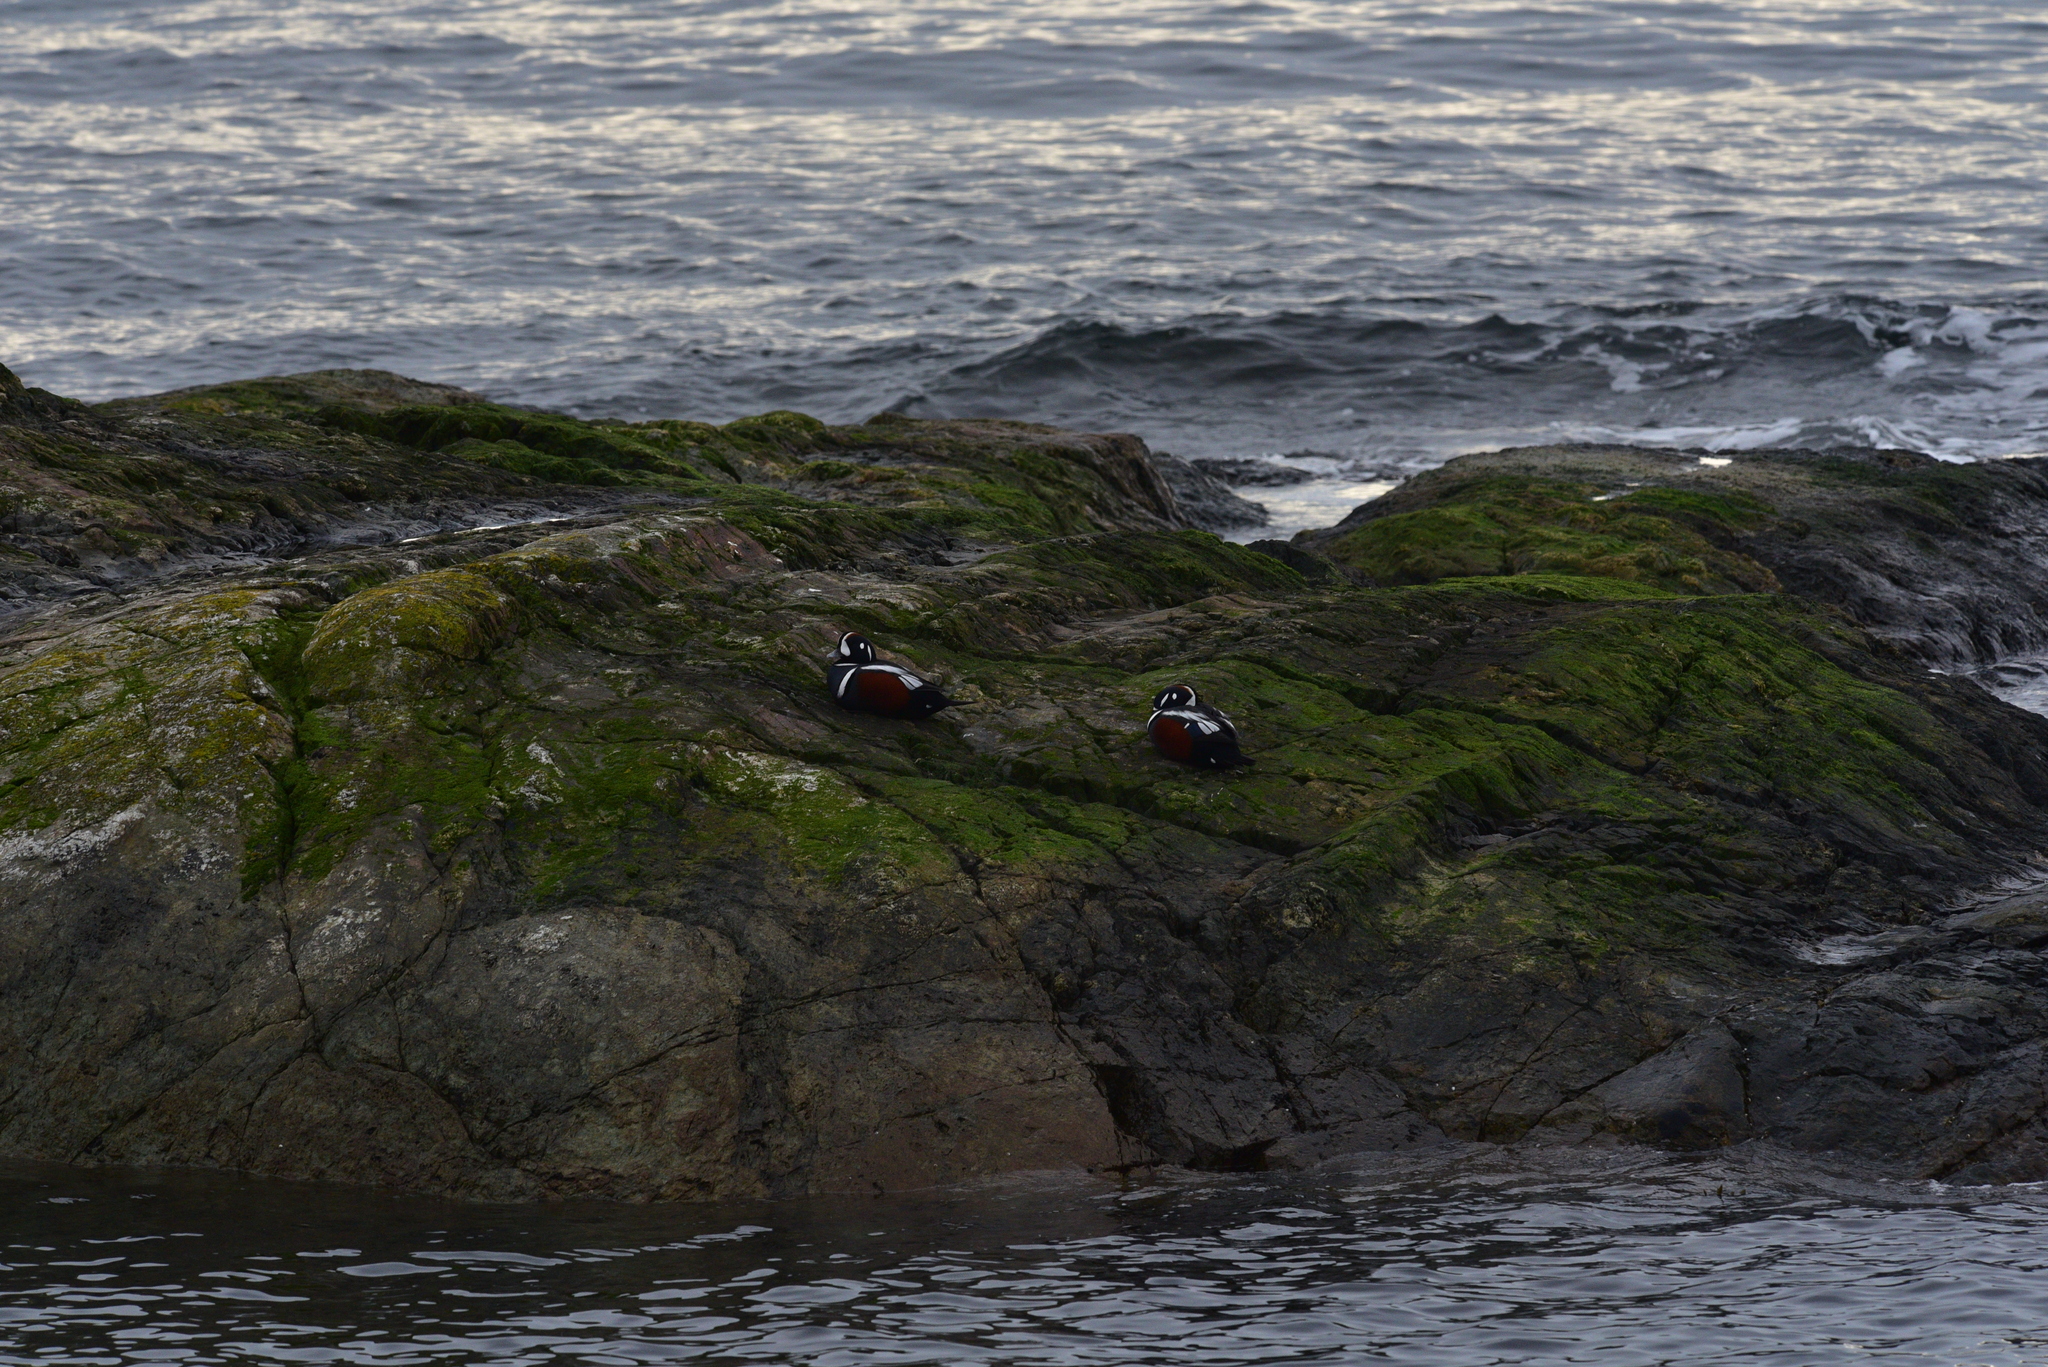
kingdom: Animalia
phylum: Chordata
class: Aves
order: Anseriformes
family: Anatidae
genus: Histrionicus
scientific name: Histrionicus histrionicus
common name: Harlequin duck
